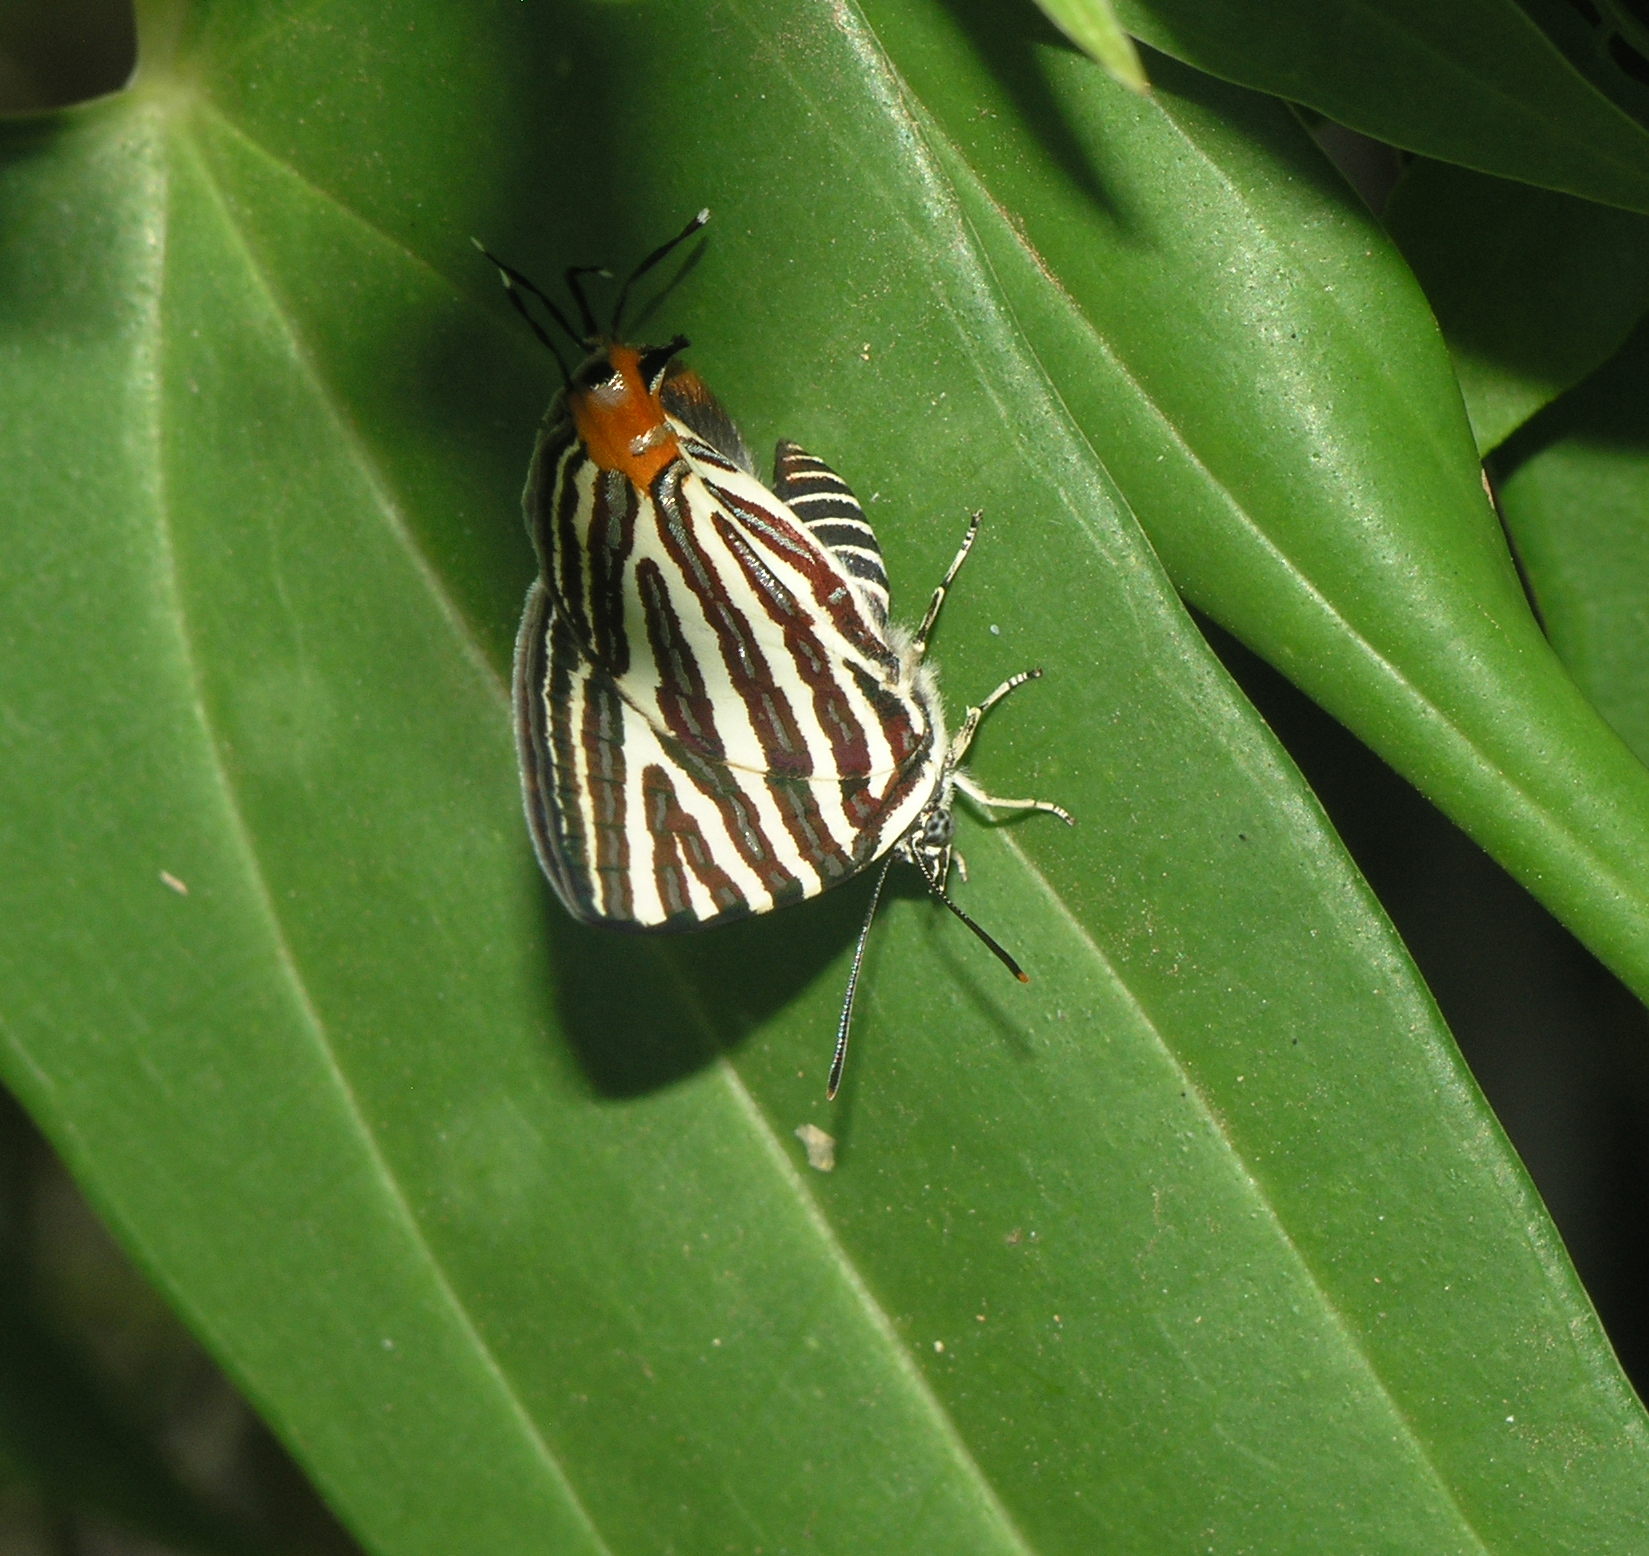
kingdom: Animalia
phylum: Arthropoda
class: Insecta
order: Lepidoptera
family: Lycaenidae
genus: Cigaritis
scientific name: Cigaritis lohita
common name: Long-banded silverline
